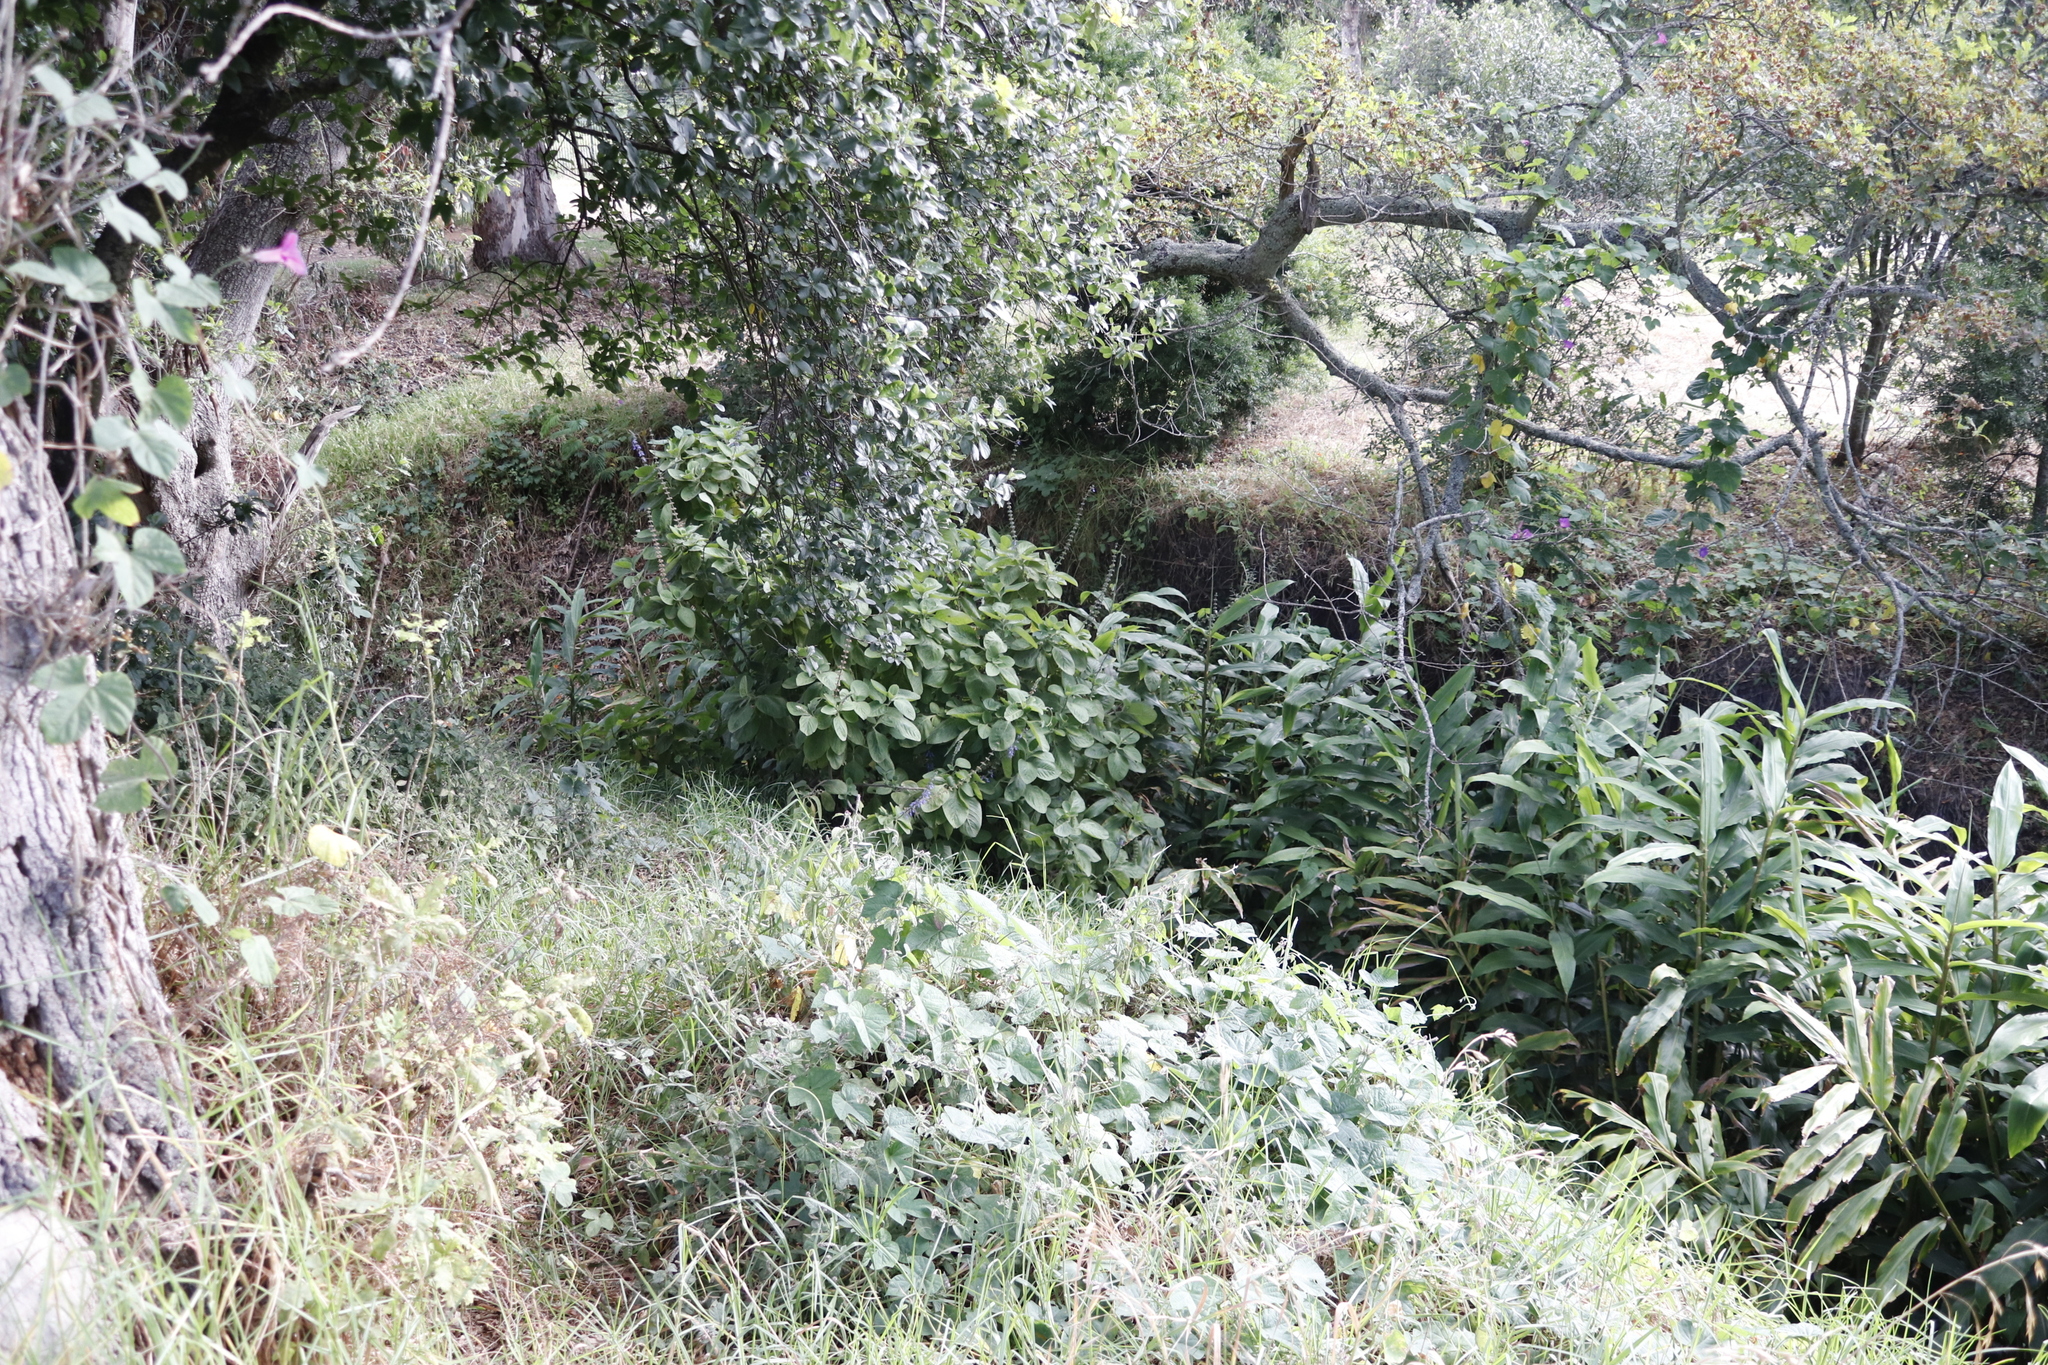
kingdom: Plantae
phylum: Tracheophyta
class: Magnoliopsida
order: Lamiales
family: Lamiaceae
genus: Coleus
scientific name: Coleus barbatus
